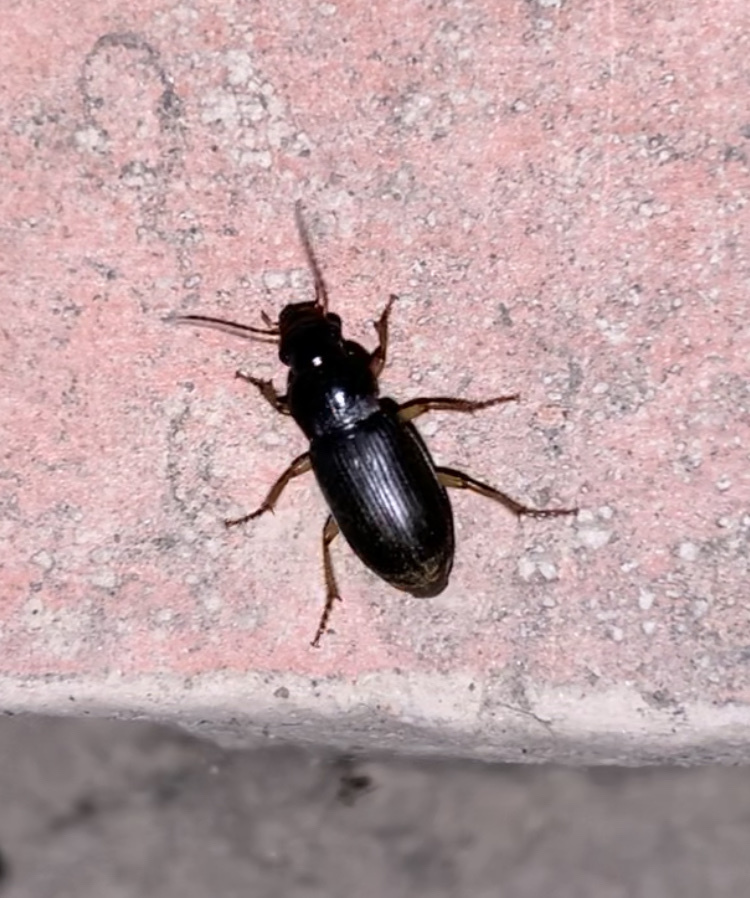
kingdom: Animalia
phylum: Arthropoda
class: Insecta
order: Coleoptera
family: Carabidae
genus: Harpalus
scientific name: Harpalus rufipes
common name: Strawberry harp ground beetle
